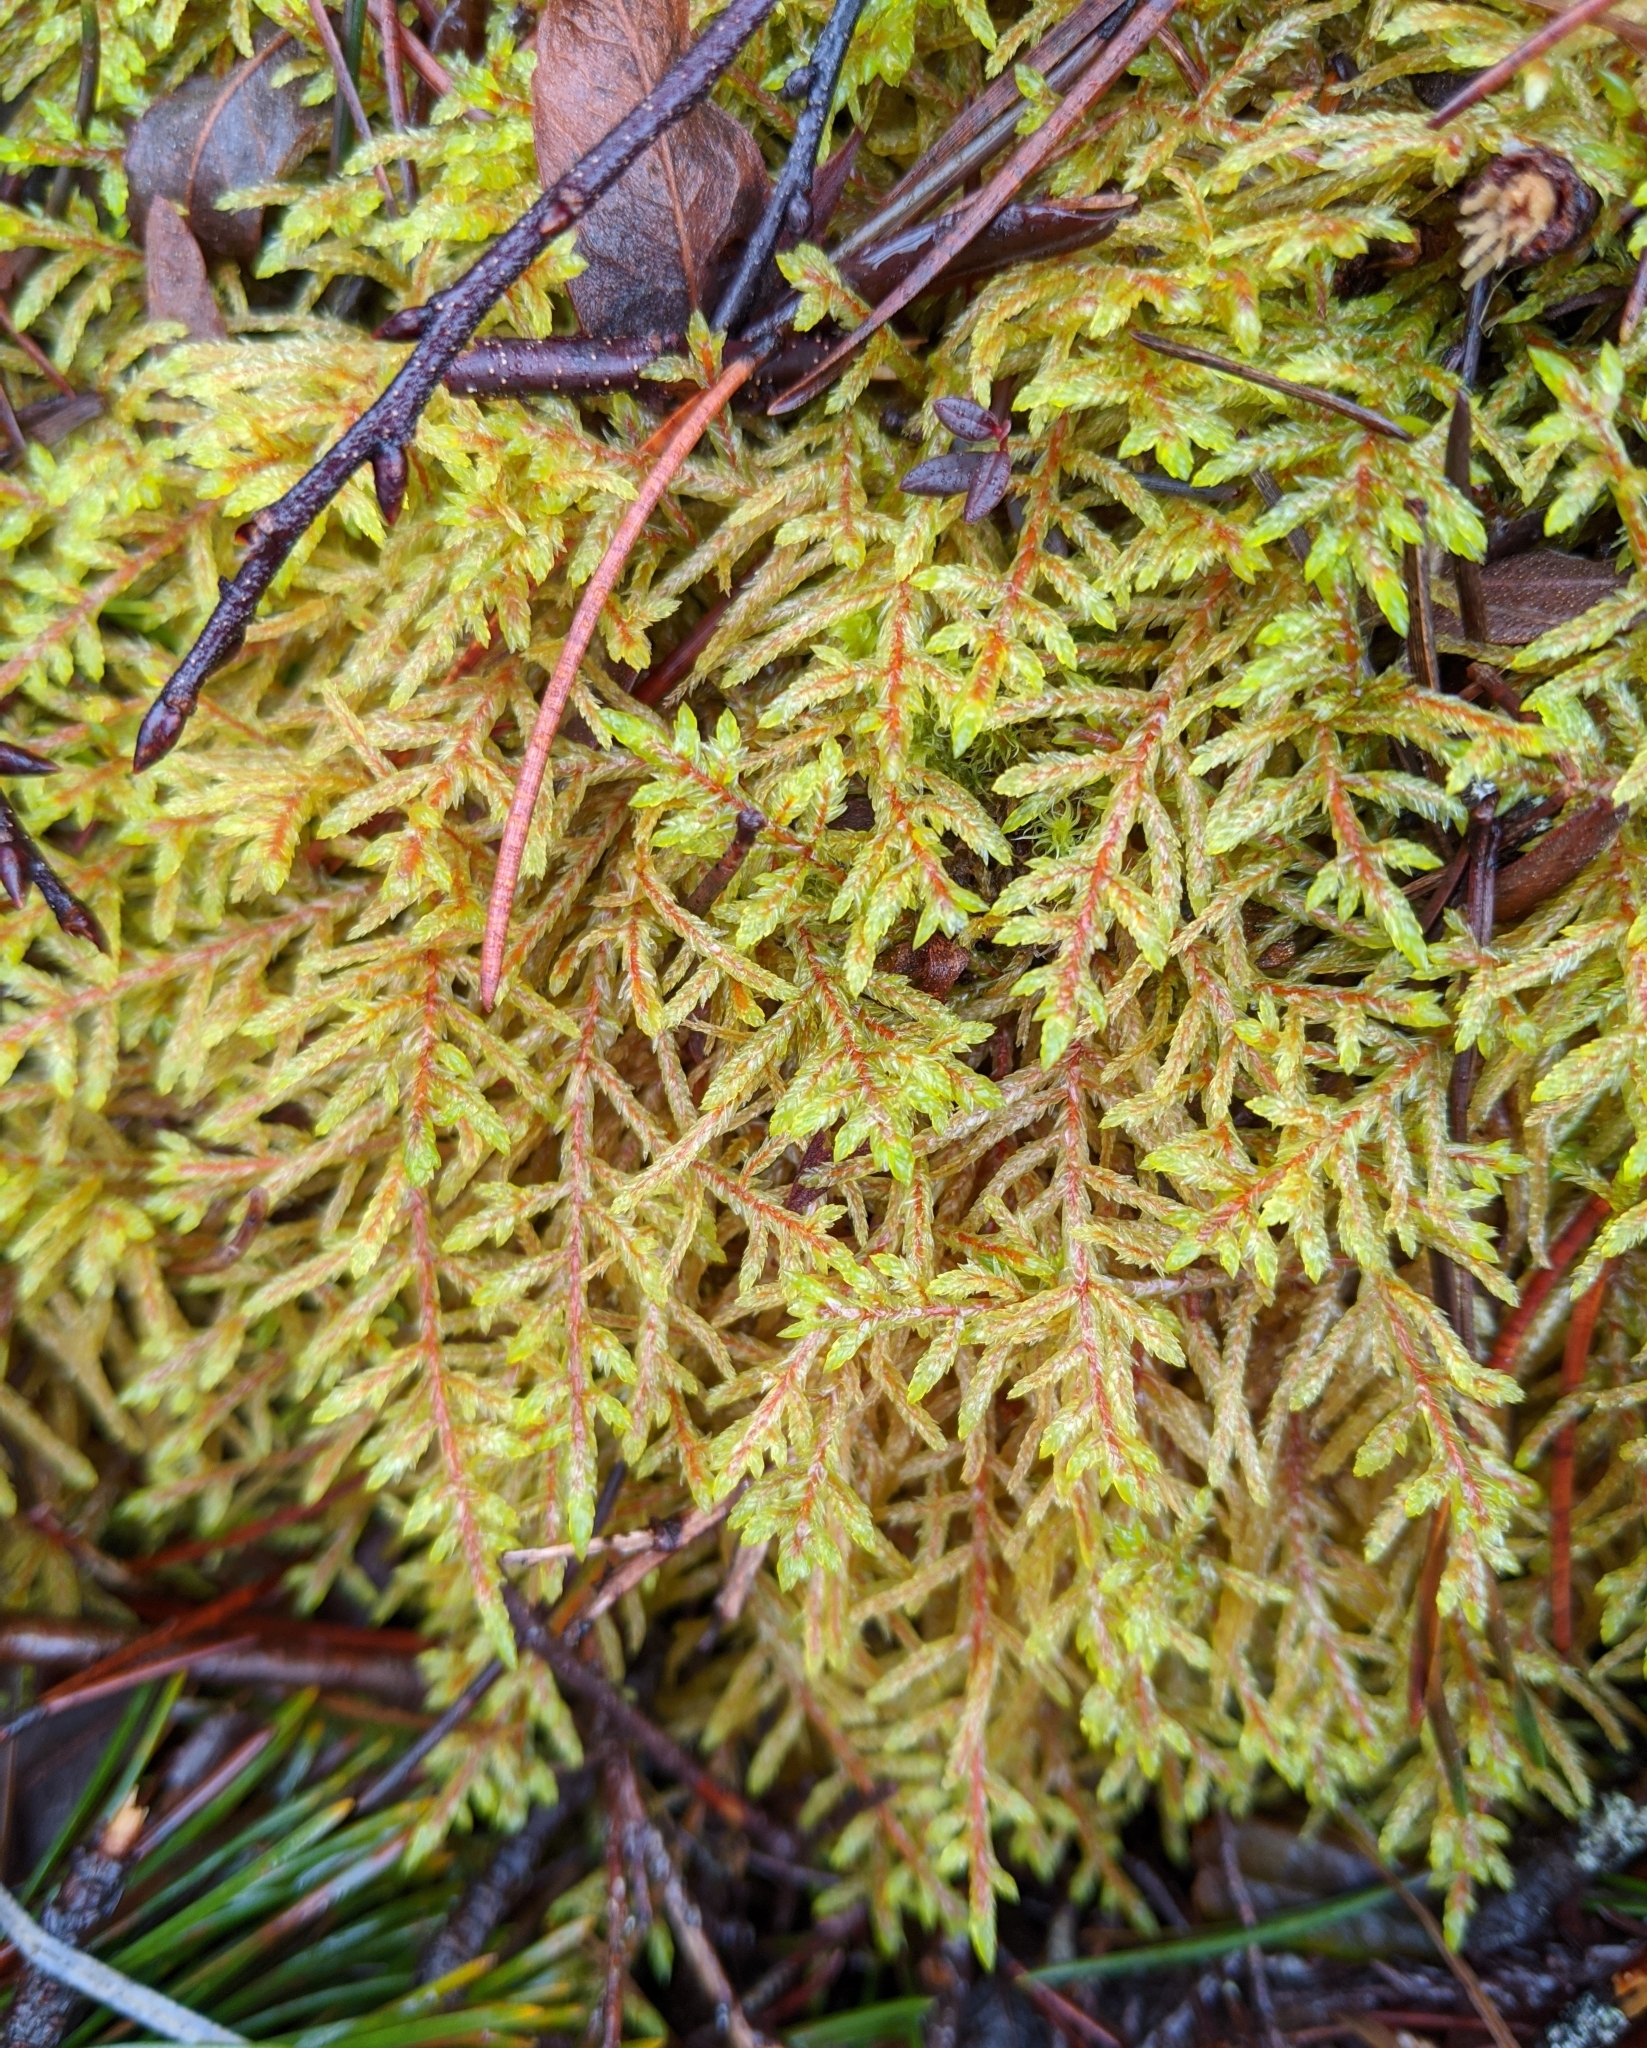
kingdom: Plantae
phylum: Bryophyta
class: Bryopsida
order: Hypnales
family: Hylocomiaceae
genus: Pleurozium
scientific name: Pleurozium schreberi
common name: Red-stemmed feather moss
